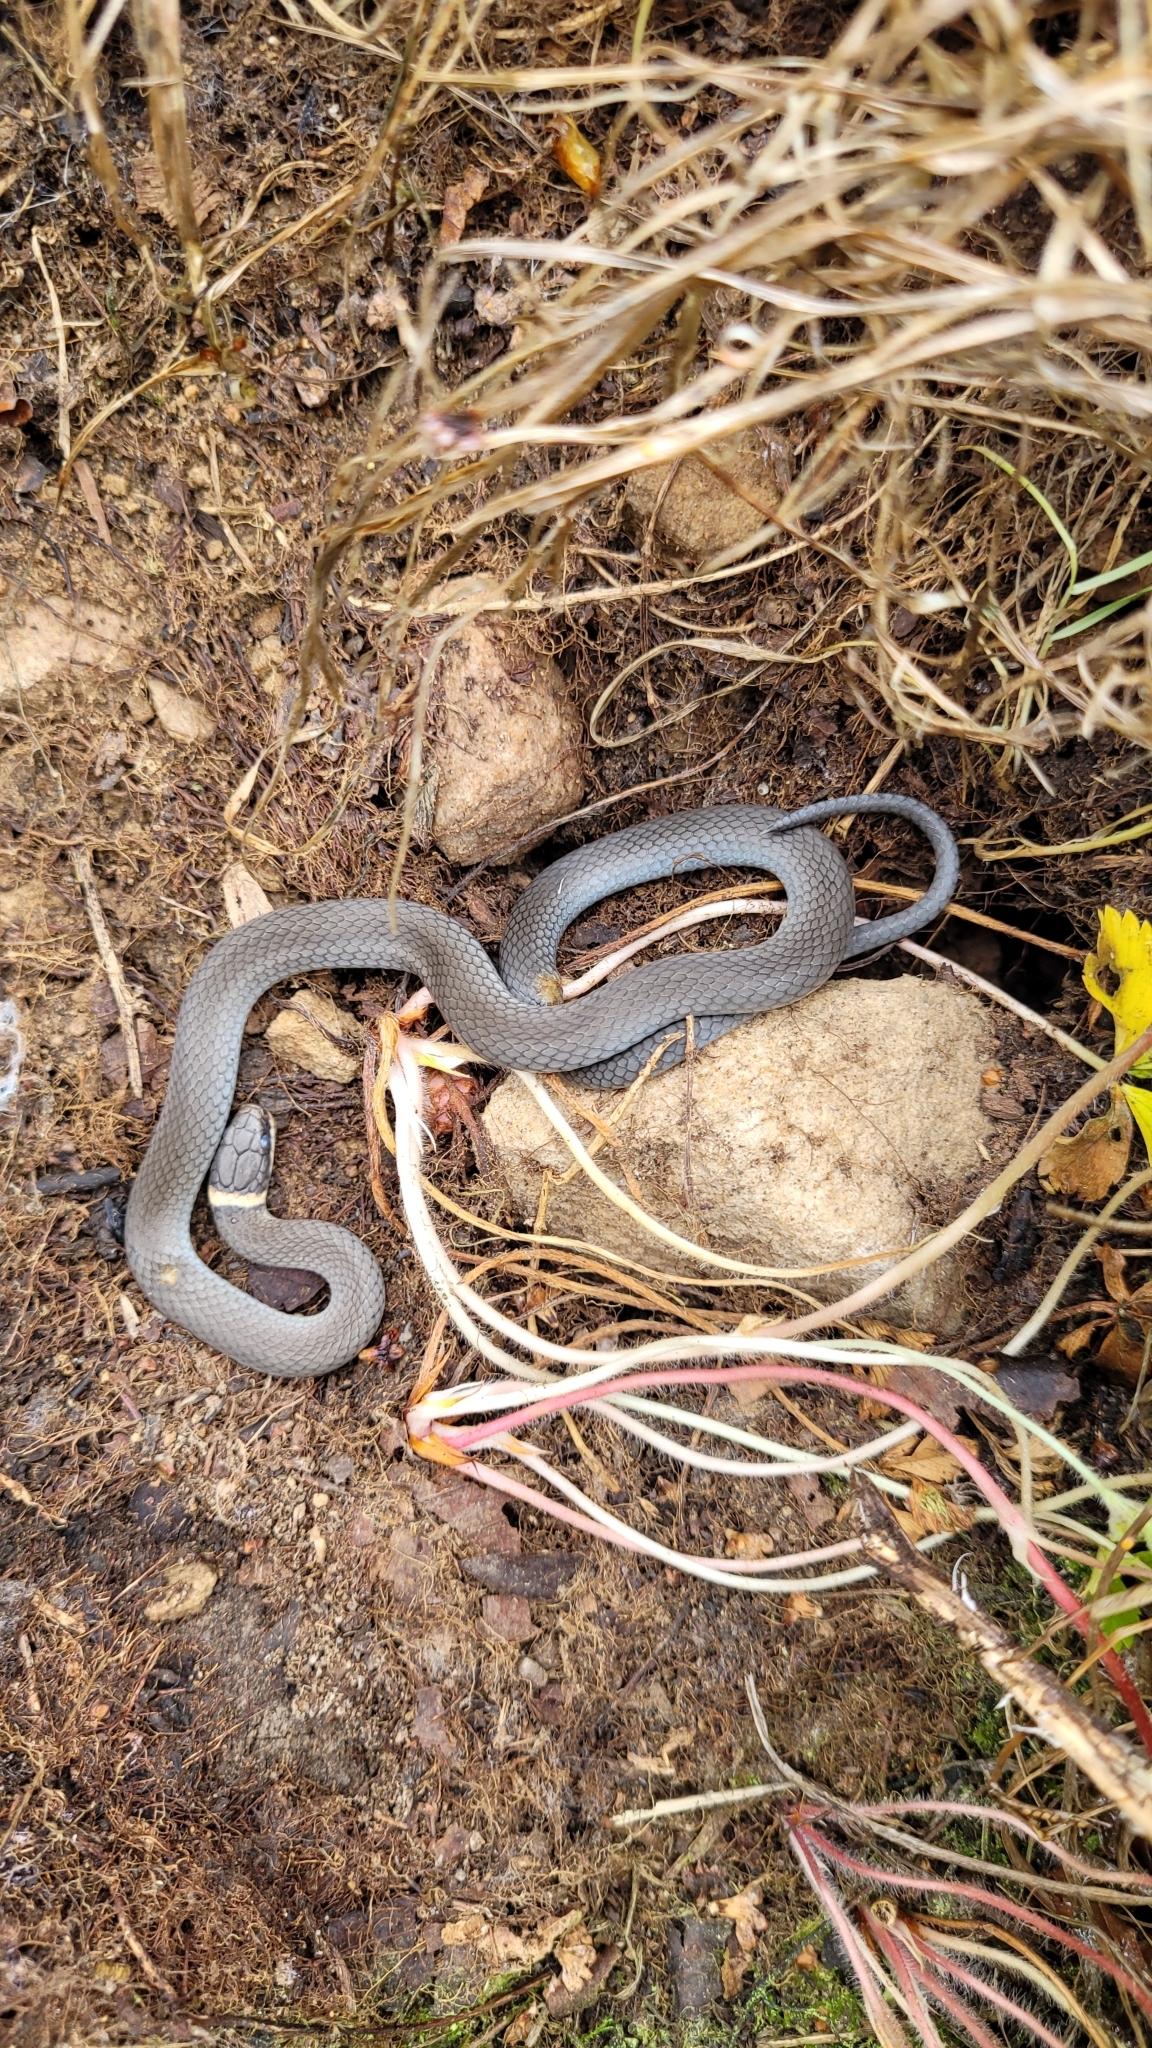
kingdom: Animalia
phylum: Chordata
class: Squamata
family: Colubridae
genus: Diadophis
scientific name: Diadophis punctatus
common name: Ringneck snake
